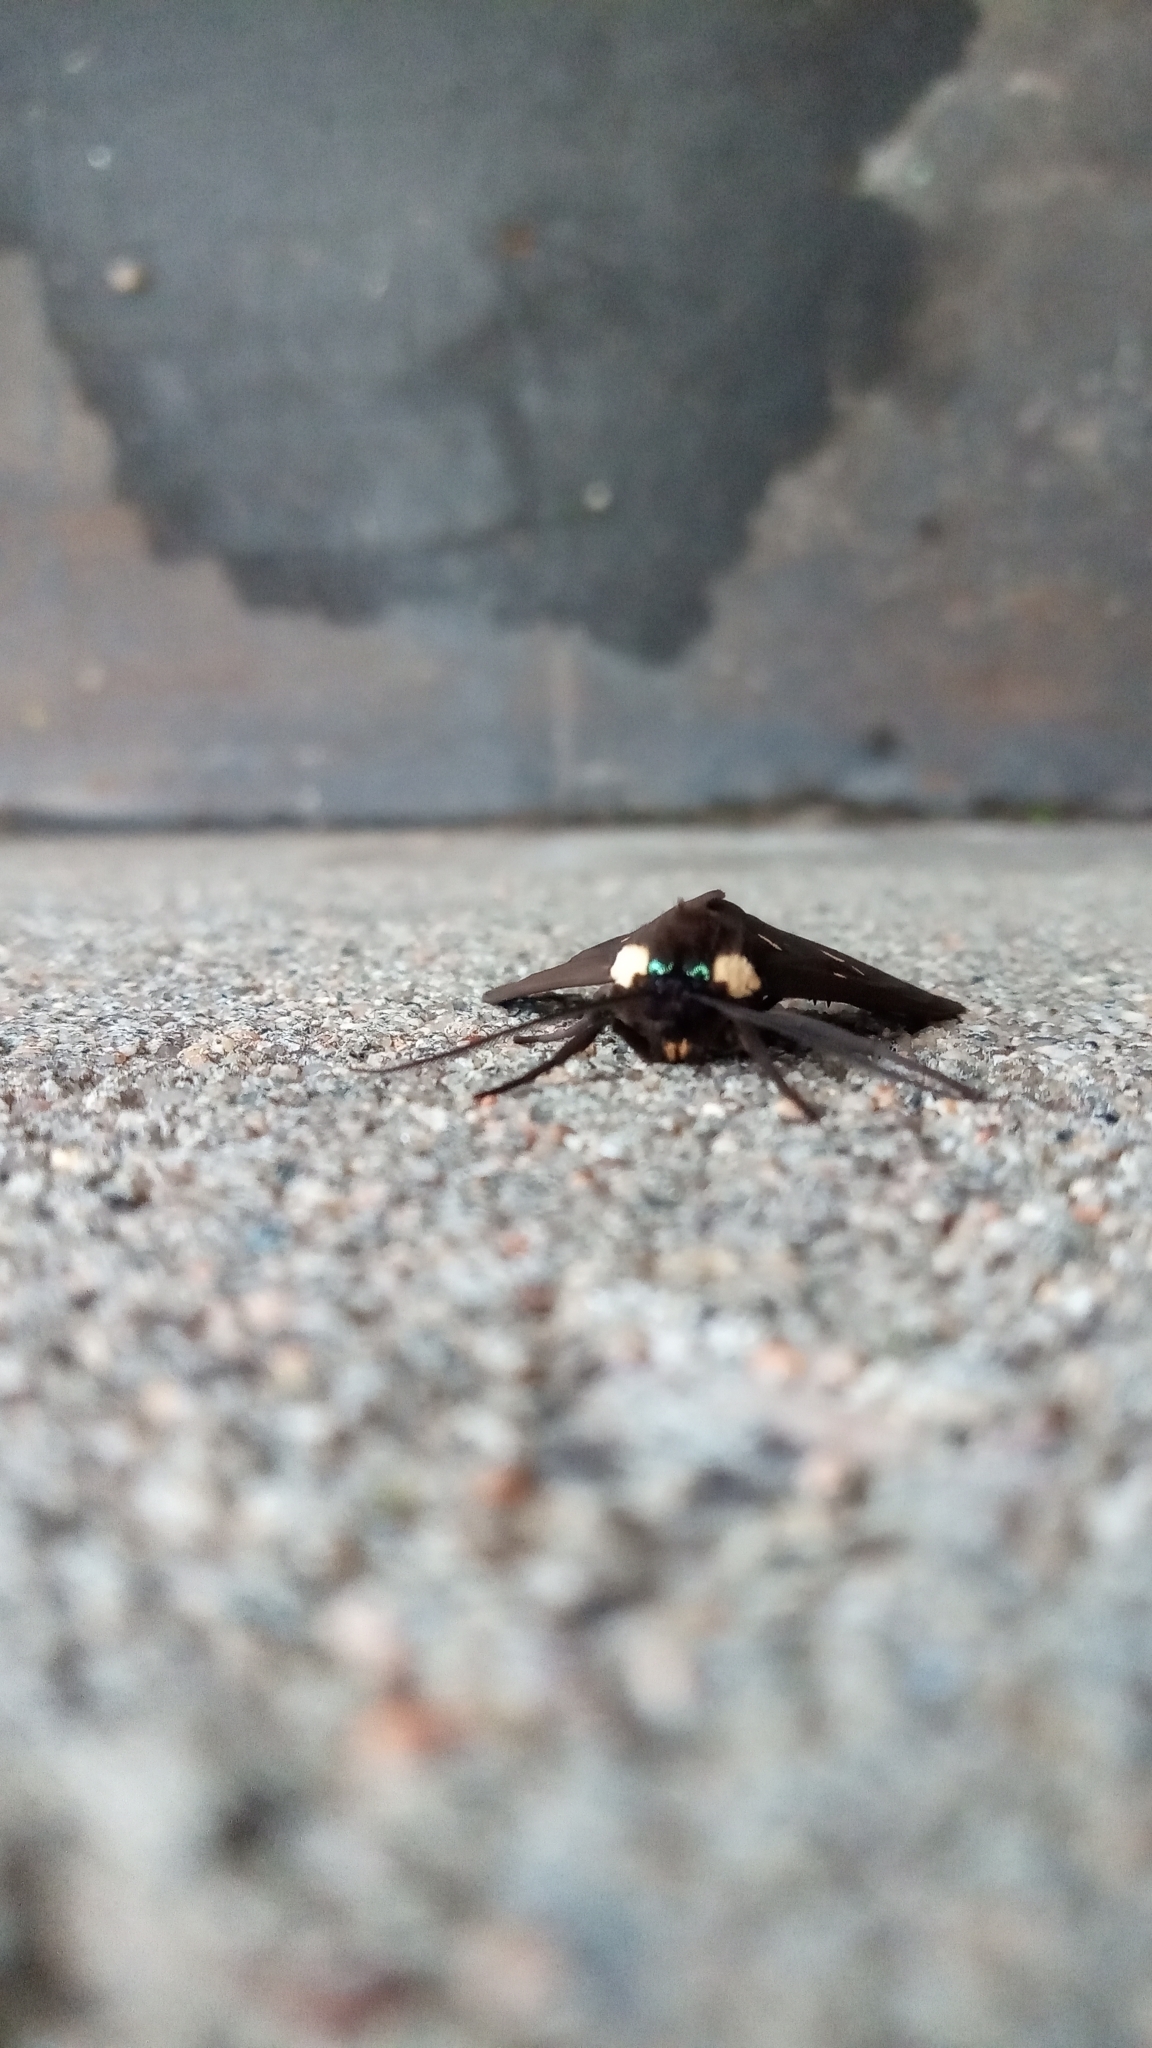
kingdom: Animalia
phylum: Arthropoda
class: Insecta
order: Lepidoptera
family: Erebidae
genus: Euclera
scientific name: Euclera
